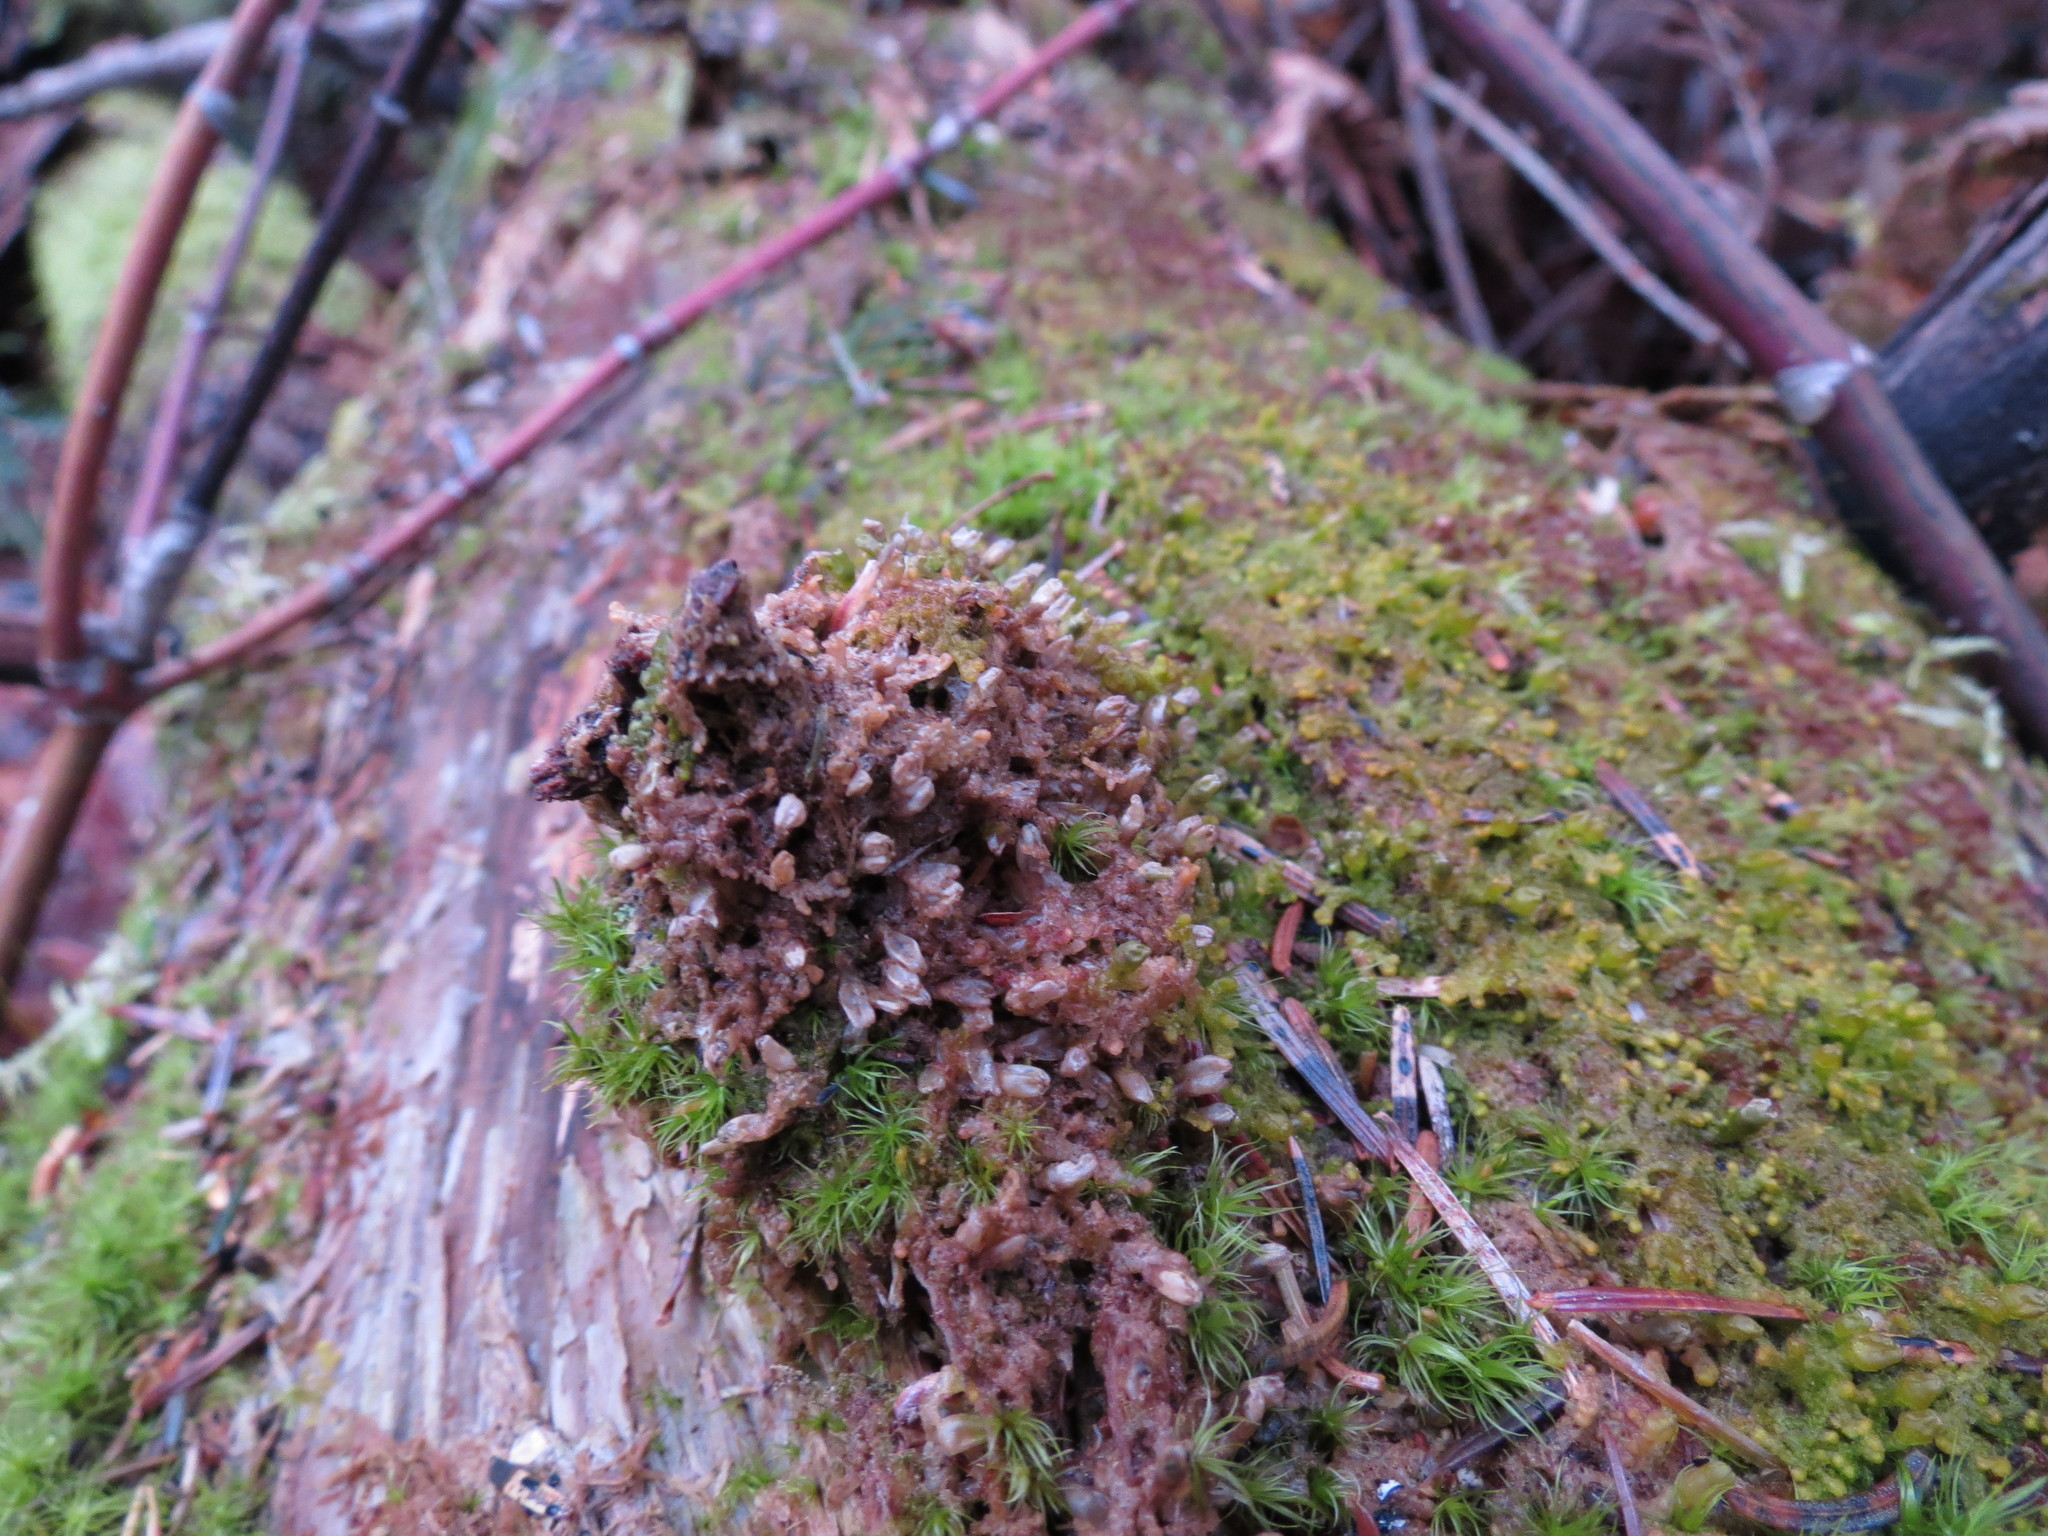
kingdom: Plantae
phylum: Marchantiophyta
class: Jungermanniopsida
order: Ptilidiales
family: Ptilidiaceae
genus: Ptilidium
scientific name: Ptilidium pulcherrimum
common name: Tree fringewort
